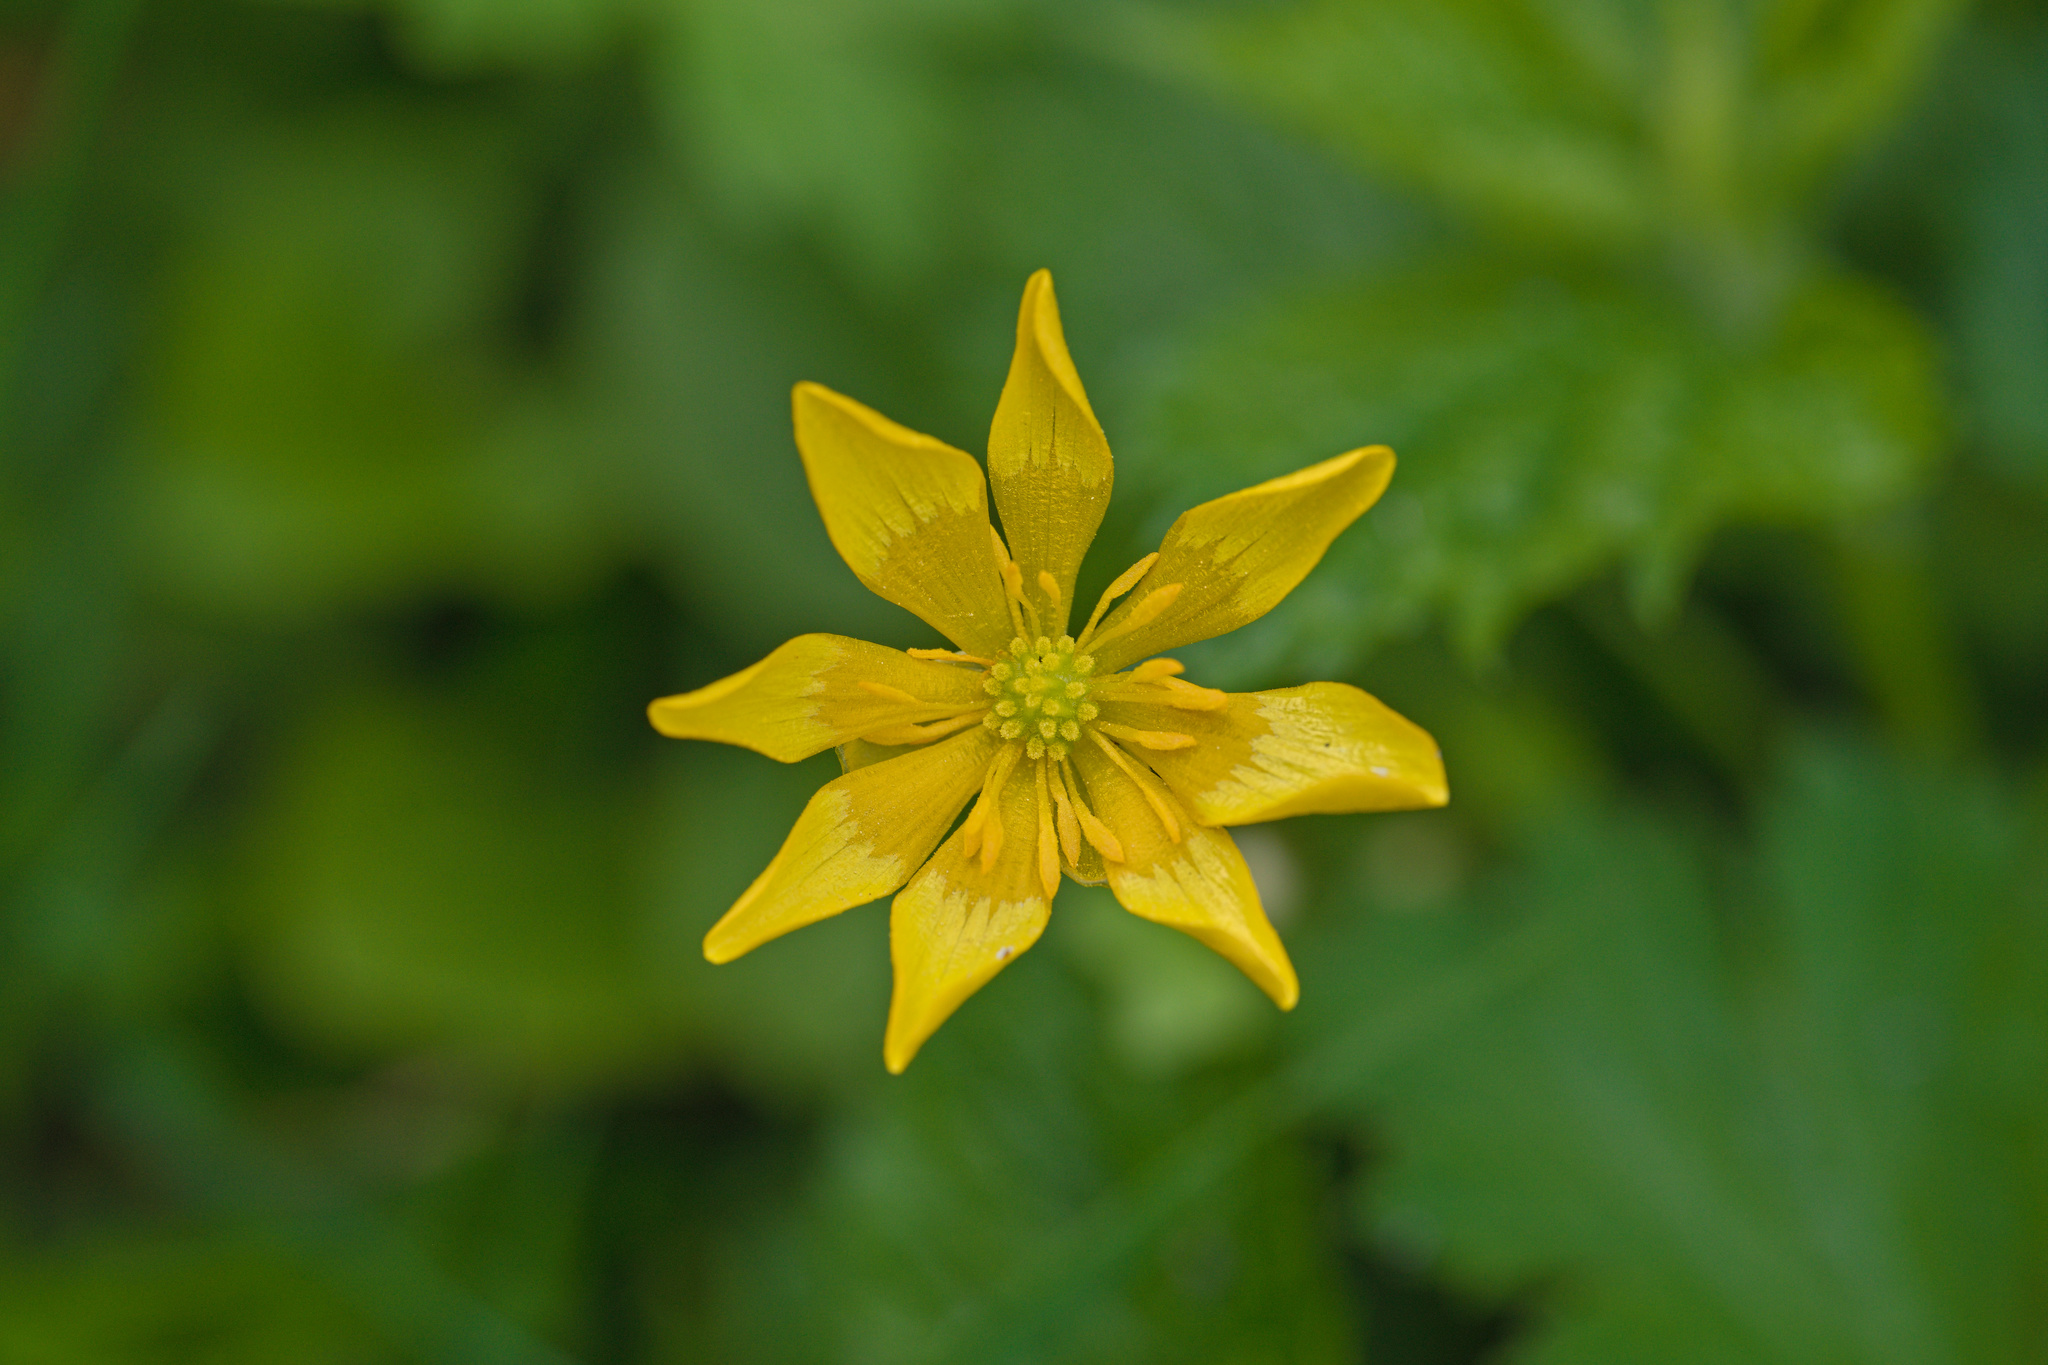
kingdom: Plantae
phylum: Tracheophyta
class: Magnoliopsida
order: Ranunculales
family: Ranunculaceae
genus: Ficaria
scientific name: Ficaria verna
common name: Lesser celandine
